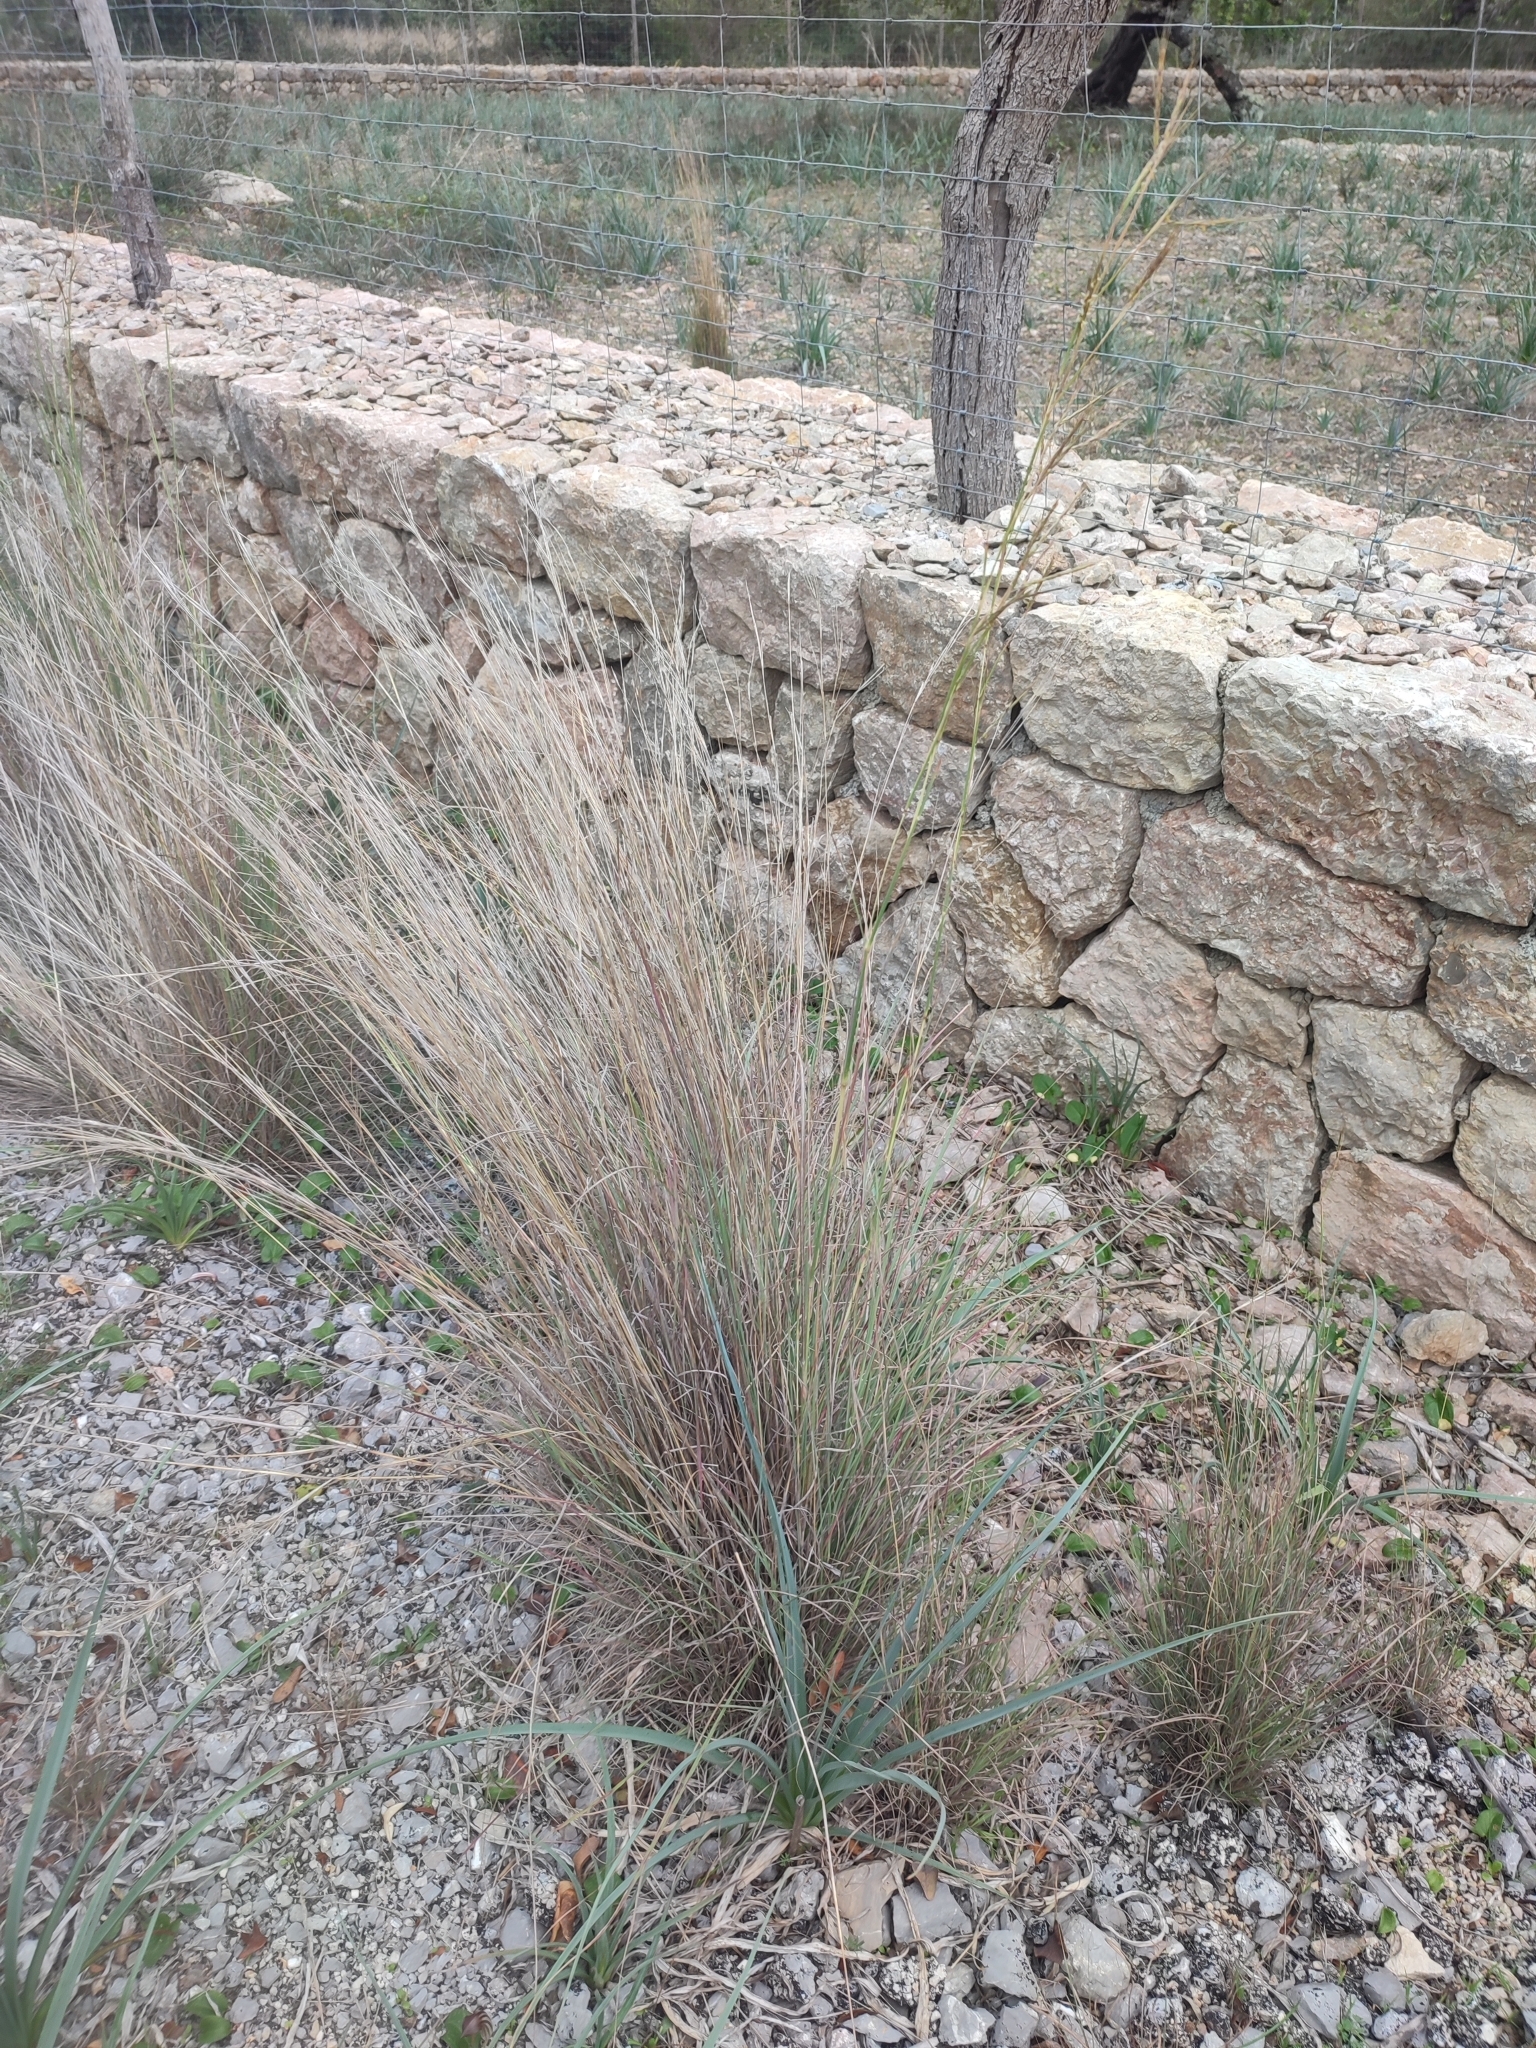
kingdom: Plantae
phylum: Tracheophyta
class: Liliopsida
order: Poales
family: Poaceae
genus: Hyparrhenia
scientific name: Hyparrhenia hirta
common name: Thatching grass
